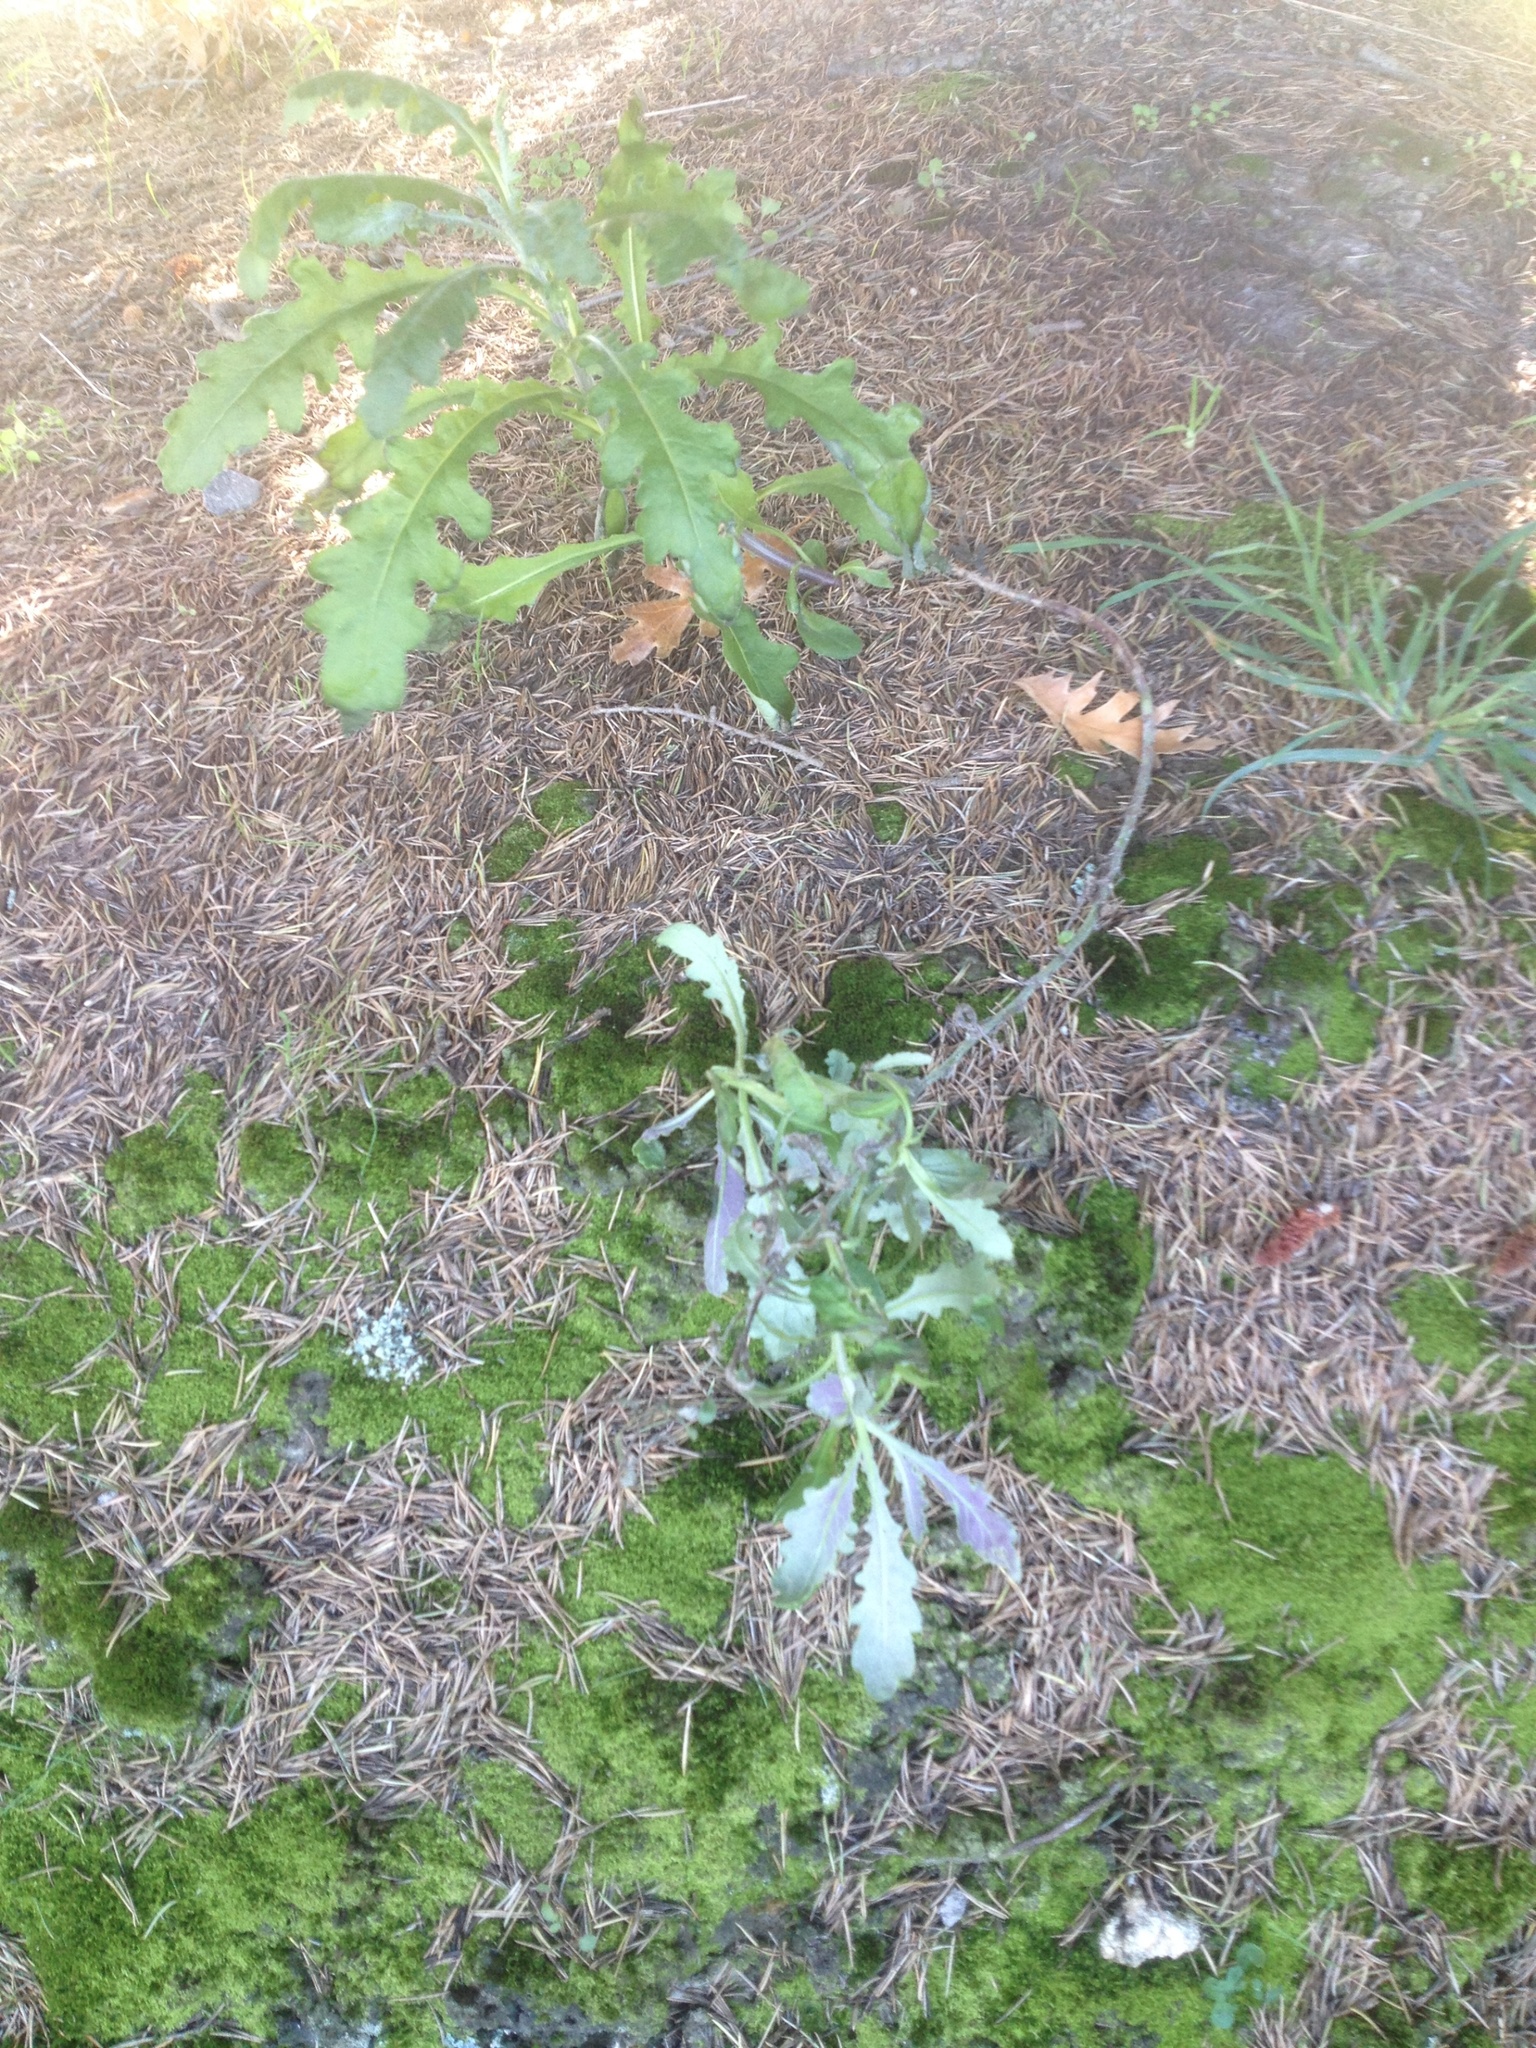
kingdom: Plantae
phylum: Tracheophyta
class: Magnoliopsida
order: Asterales
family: Asteraceae
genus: Senecio
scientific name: Senecio glomeratus
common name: Cutleaf burnweed
